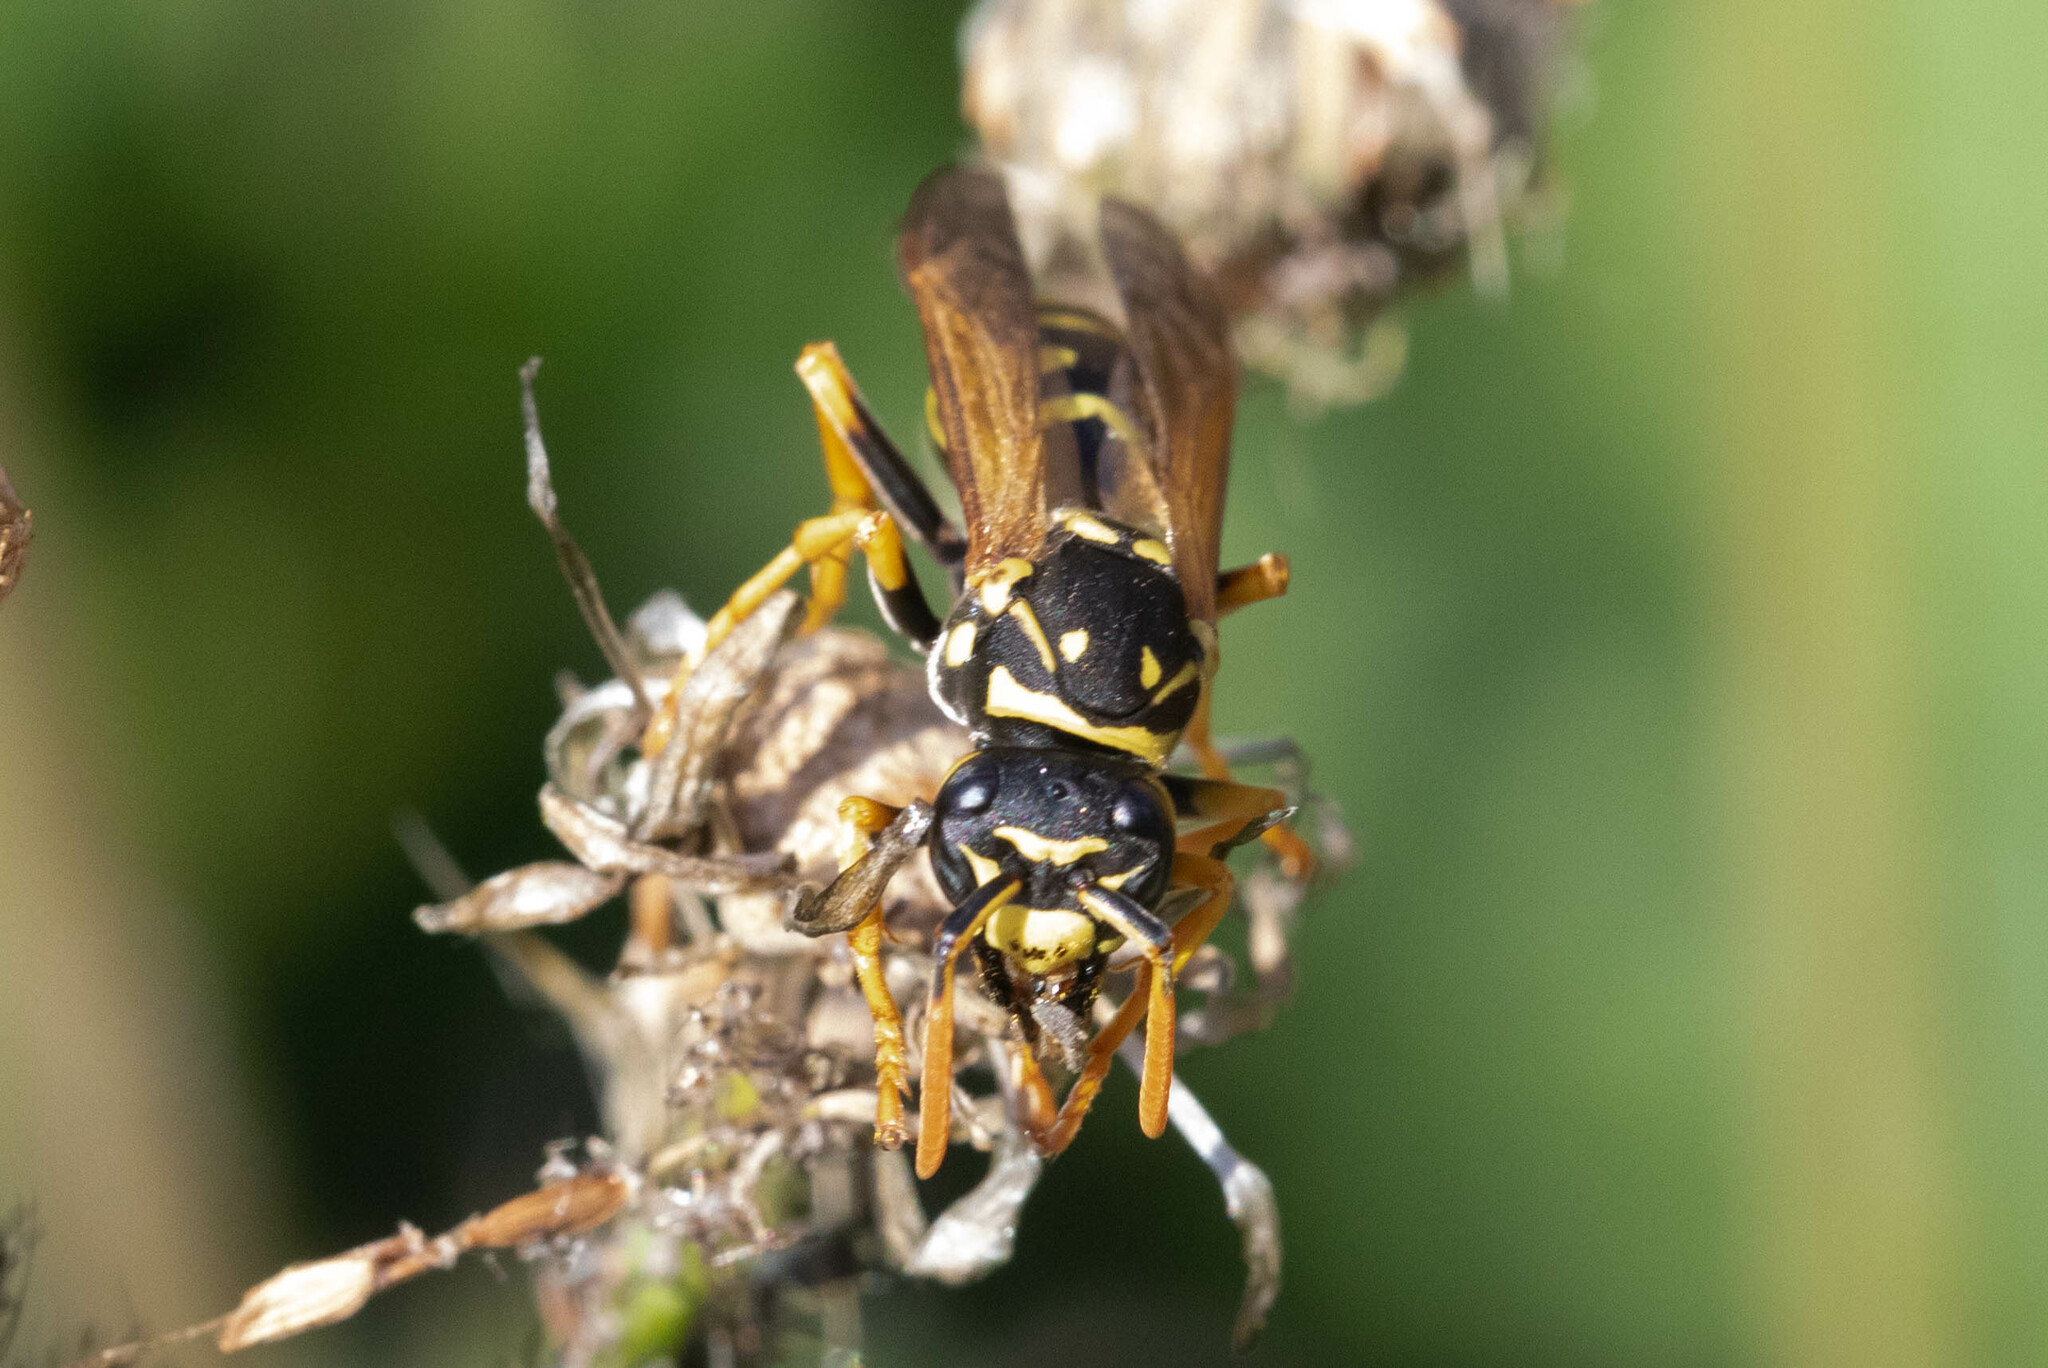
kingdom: Animalia
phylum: Arthropoda
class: Insecta
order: Hymenoptera
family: Eumenidae
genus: Polistes
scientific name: Polistes dominula
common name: Paper wasp
